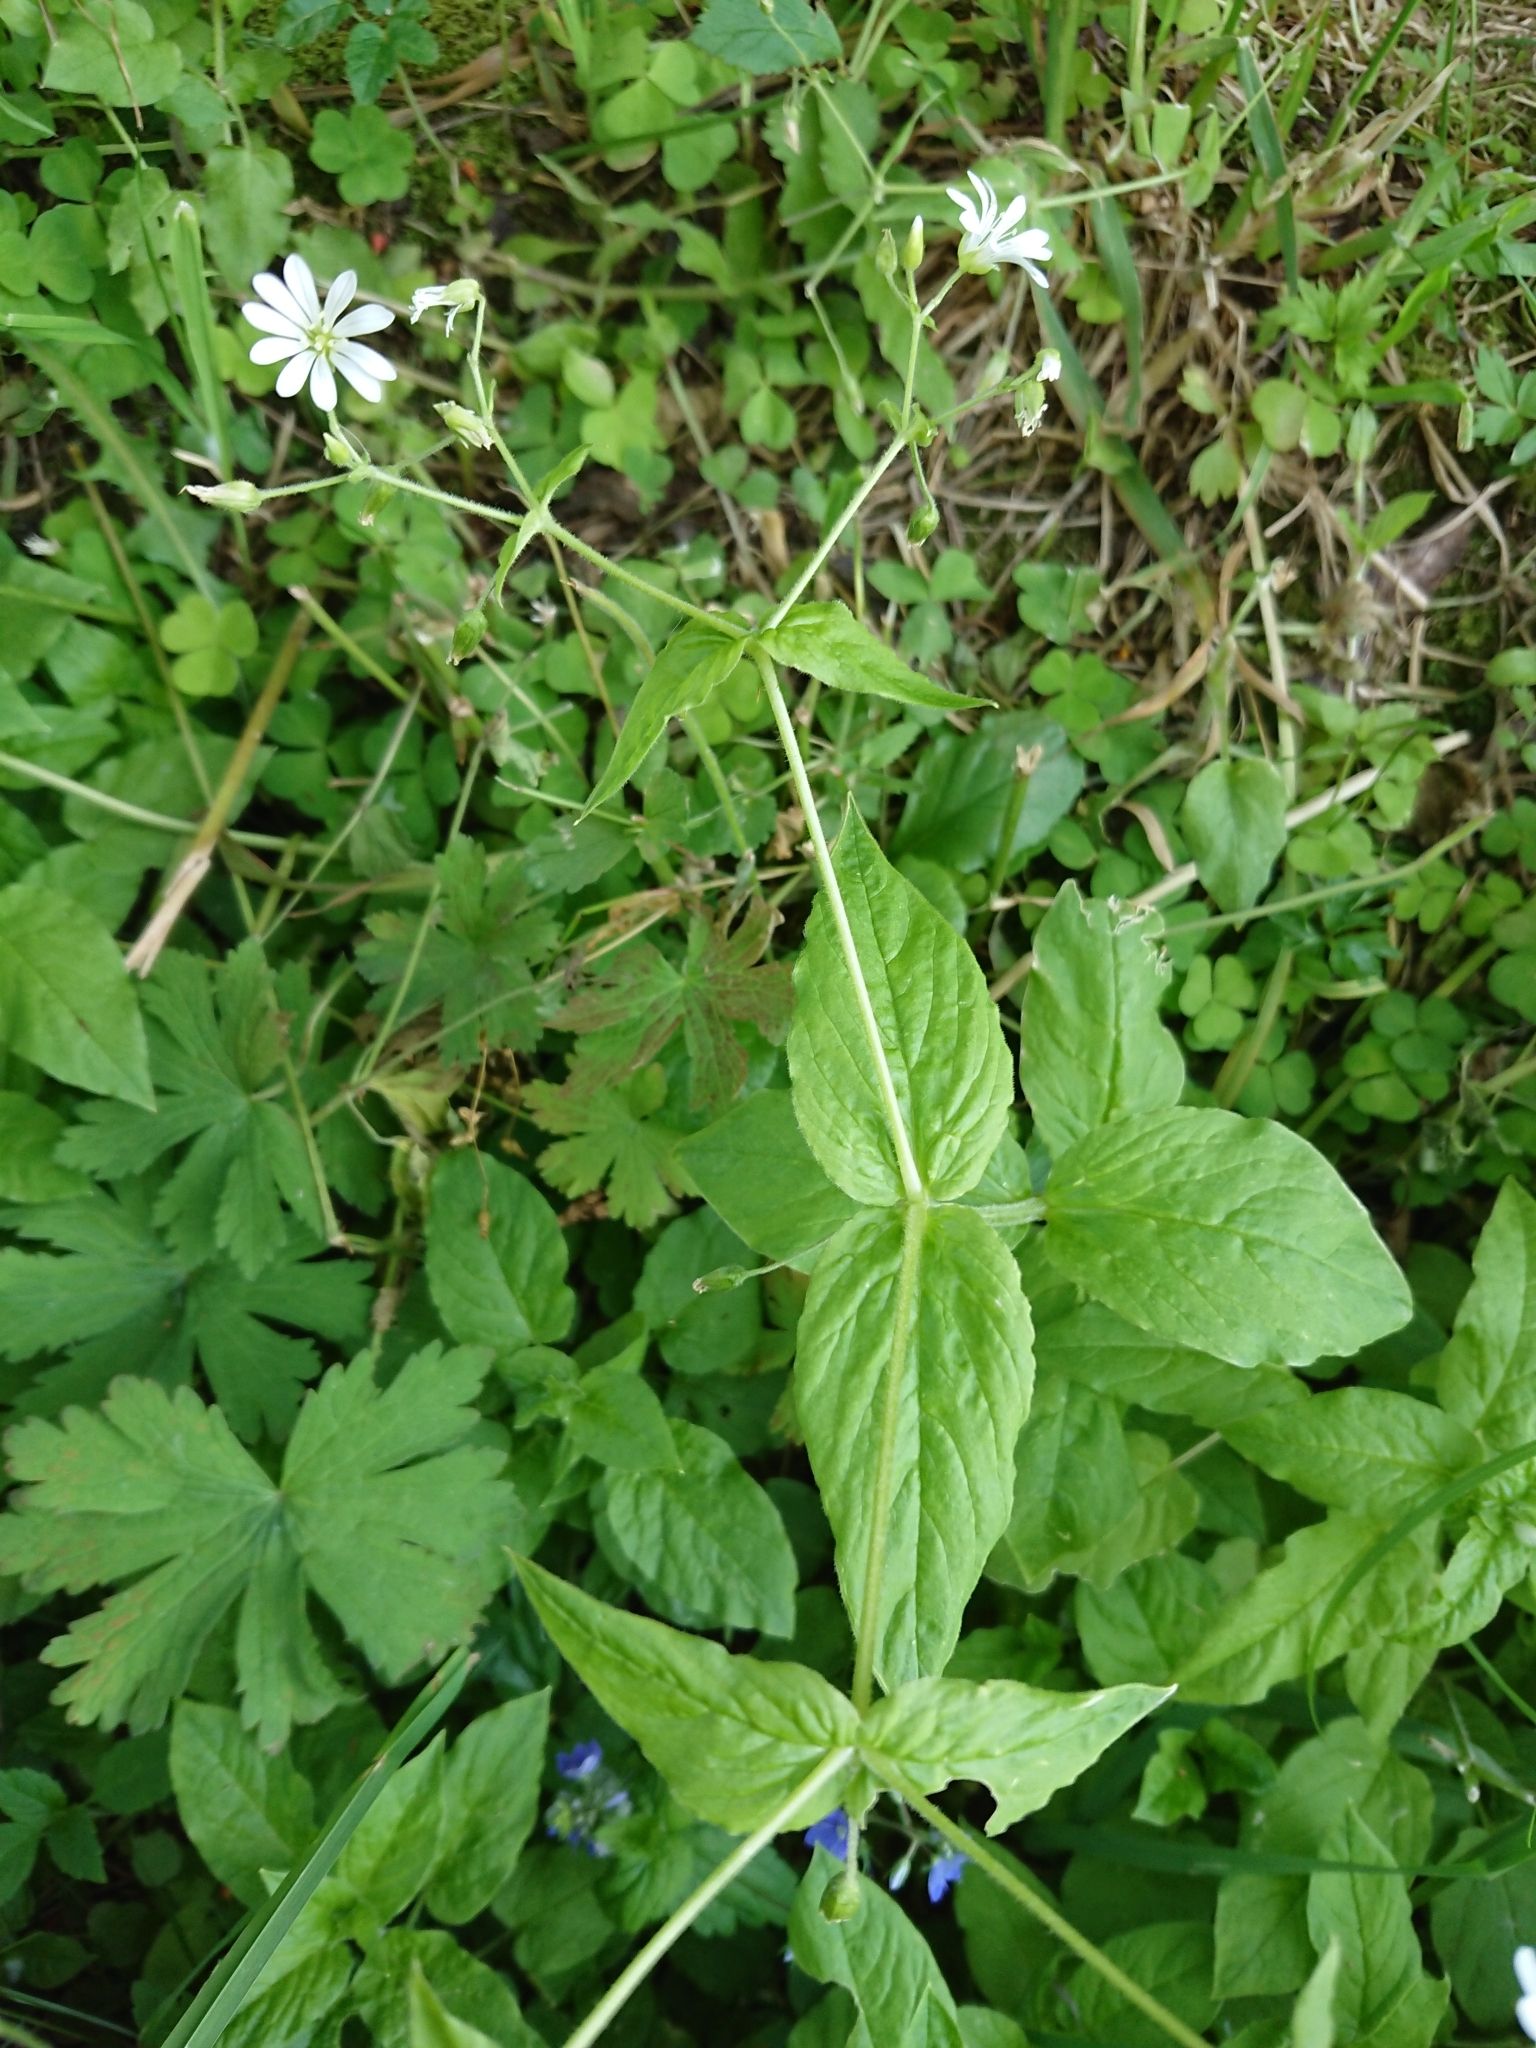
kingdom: Plantae
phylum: Tracheophyta
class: Magnoliopsida
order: Caryophyllales
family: Caryophyllaceae
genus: Stellaria
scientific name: Stellaria nemorum
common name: Wood stitchwort
